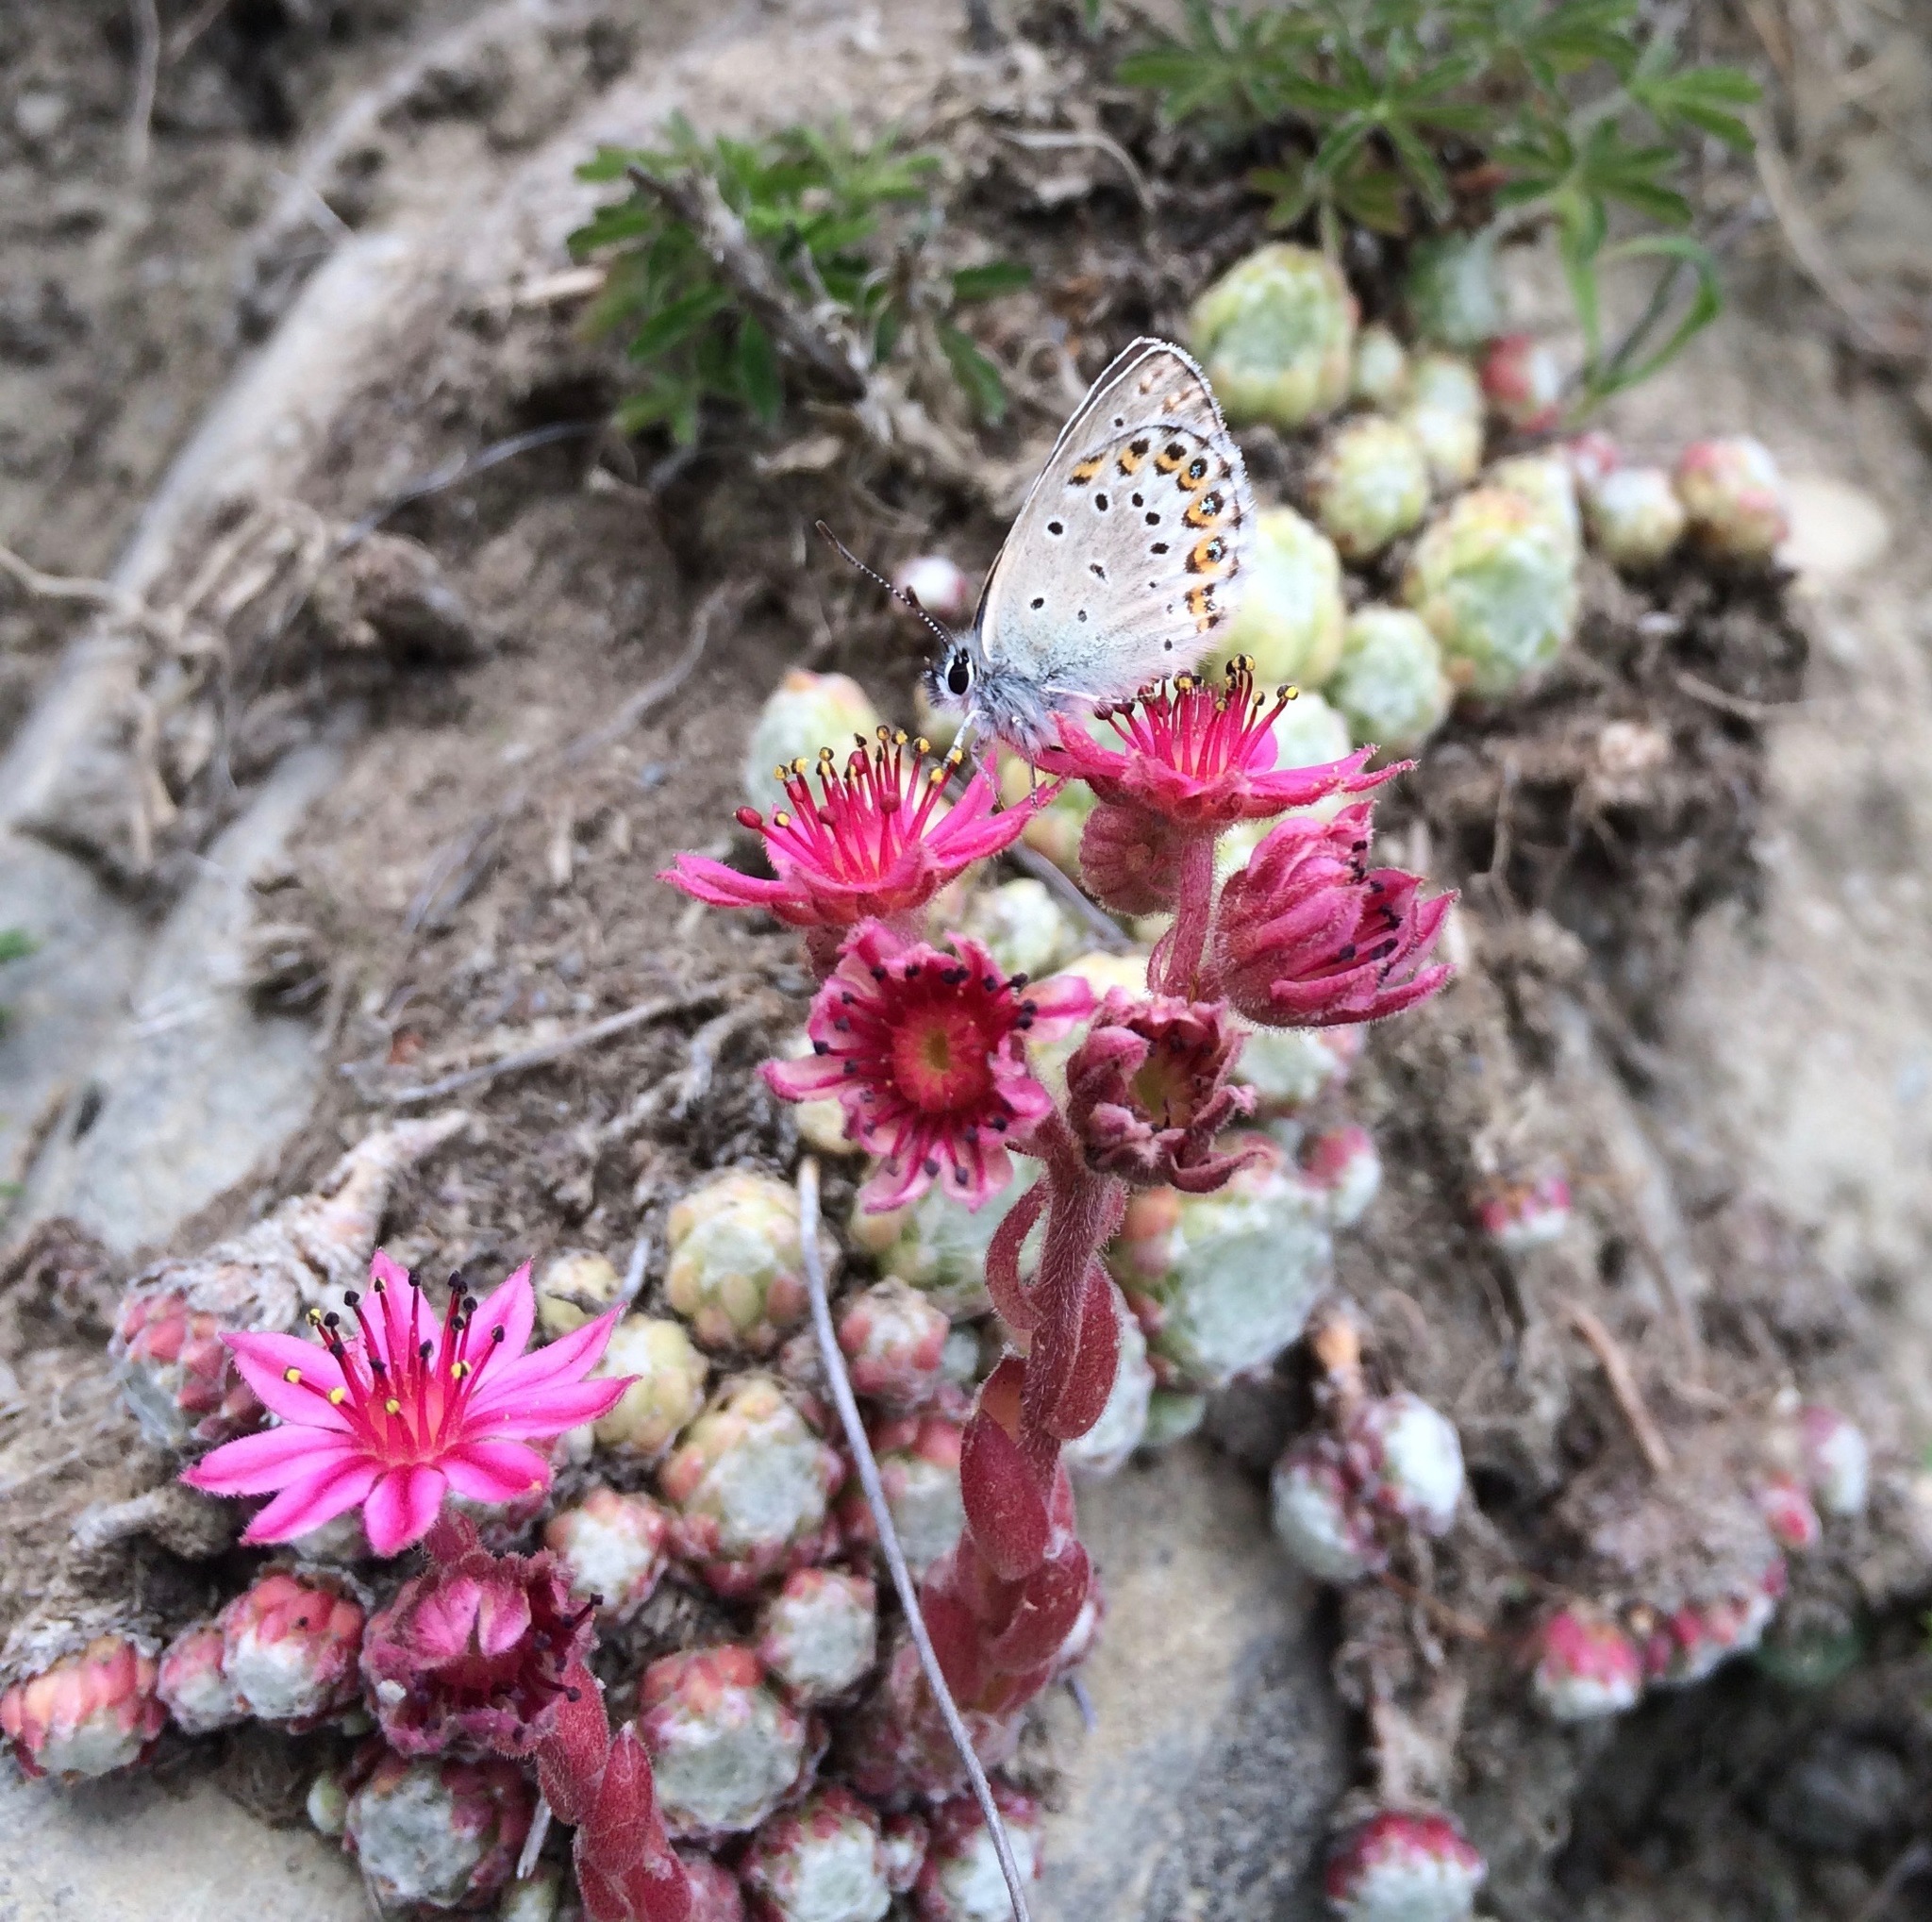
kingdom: Plantae
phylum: Tracheophyta
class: Magnoliopsida
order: Saxifragales
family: Crassulaceae
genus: Sempervivum
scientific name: Sempervivum arachnoideum
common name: Cobweb house-leek
